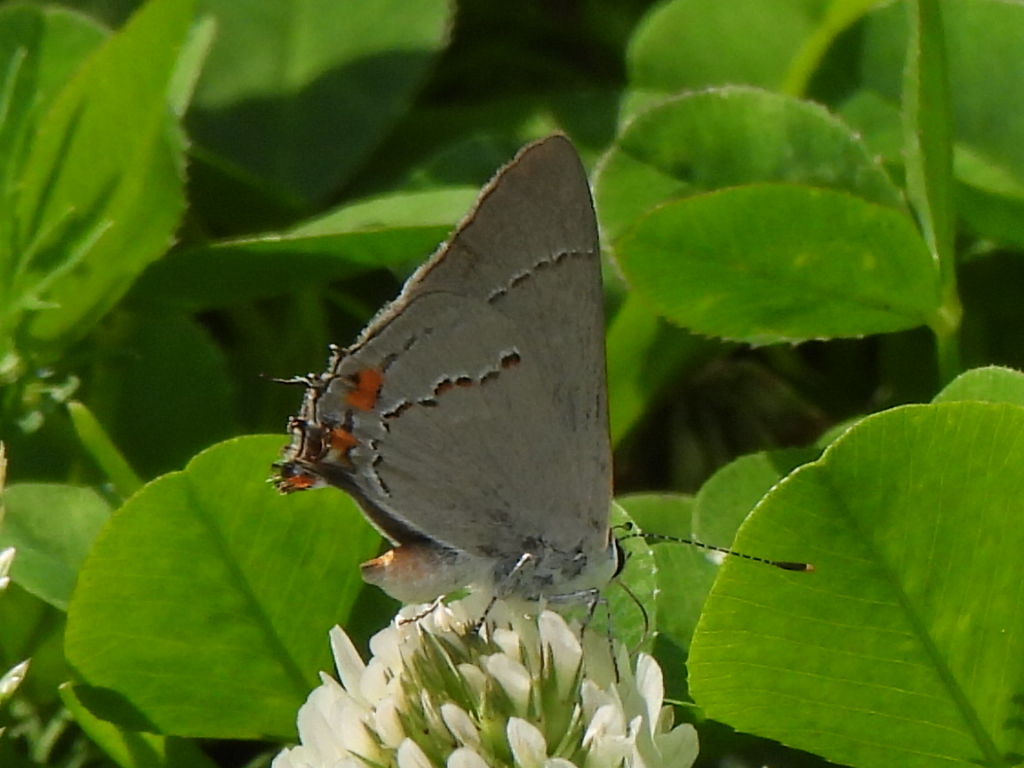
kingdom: Animalia
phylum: Arthropoda
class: Insecta
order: Lepidoptera
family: Lycaenidae
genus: Strymon
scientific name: Strymon melinus
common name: Gray hairstreak
